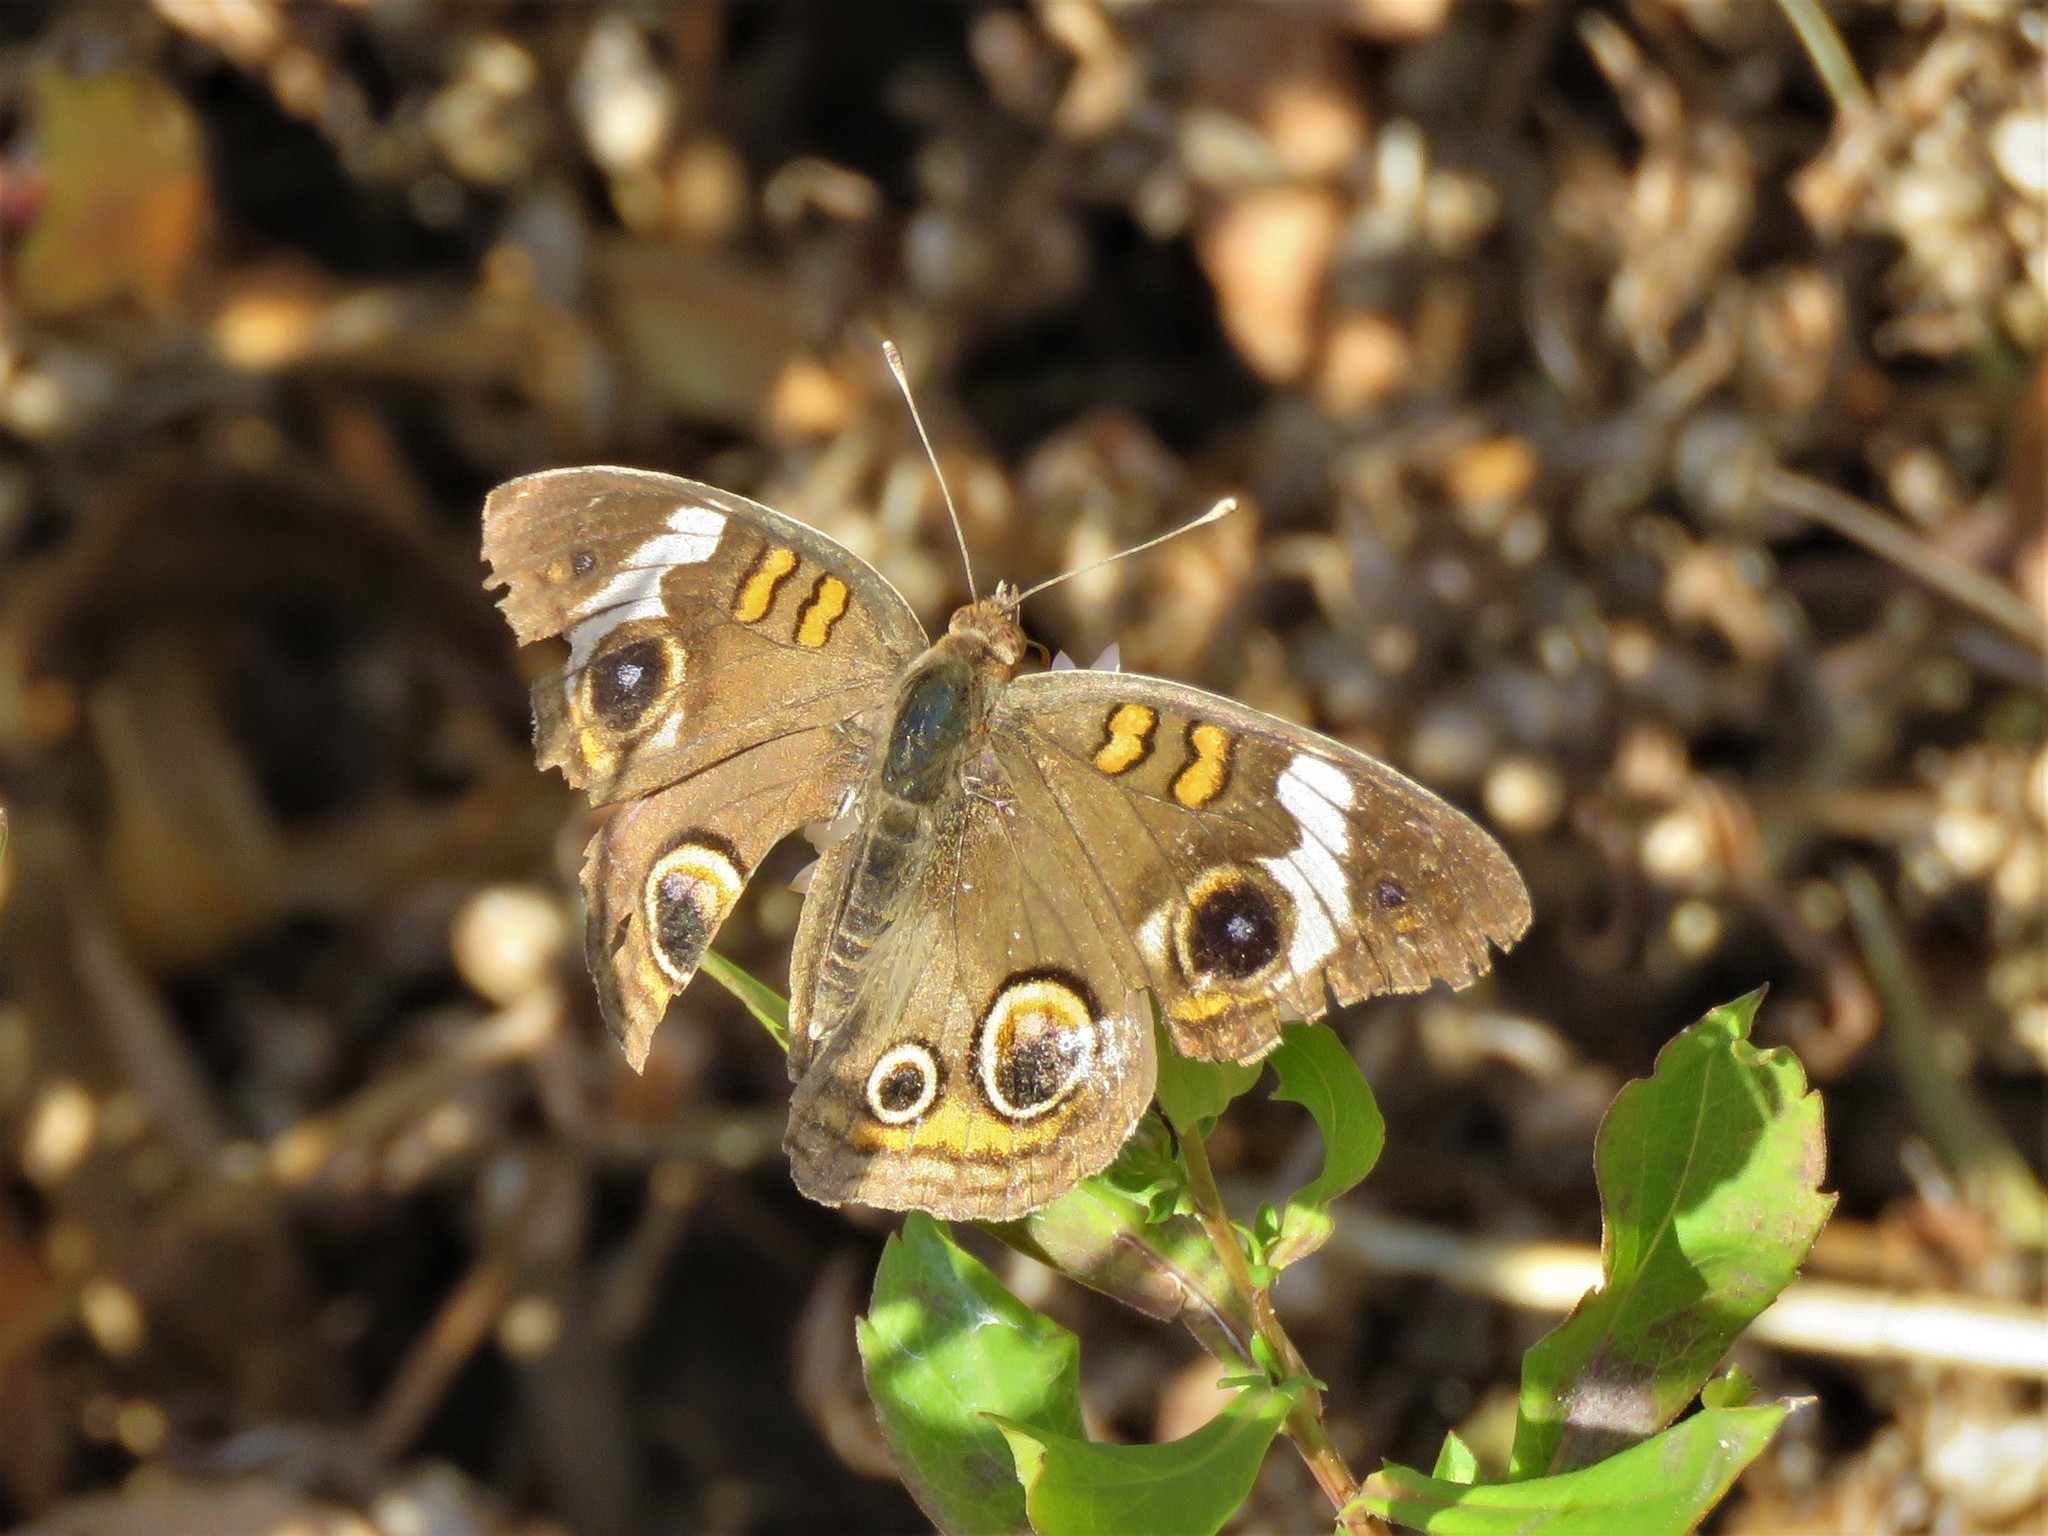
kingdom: Animalia
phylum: Arthropoda
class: Insecta
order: Lepidoptera
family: Nymphalidae
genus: Junonia
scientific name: Junonia coenia
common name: Common buckeye
